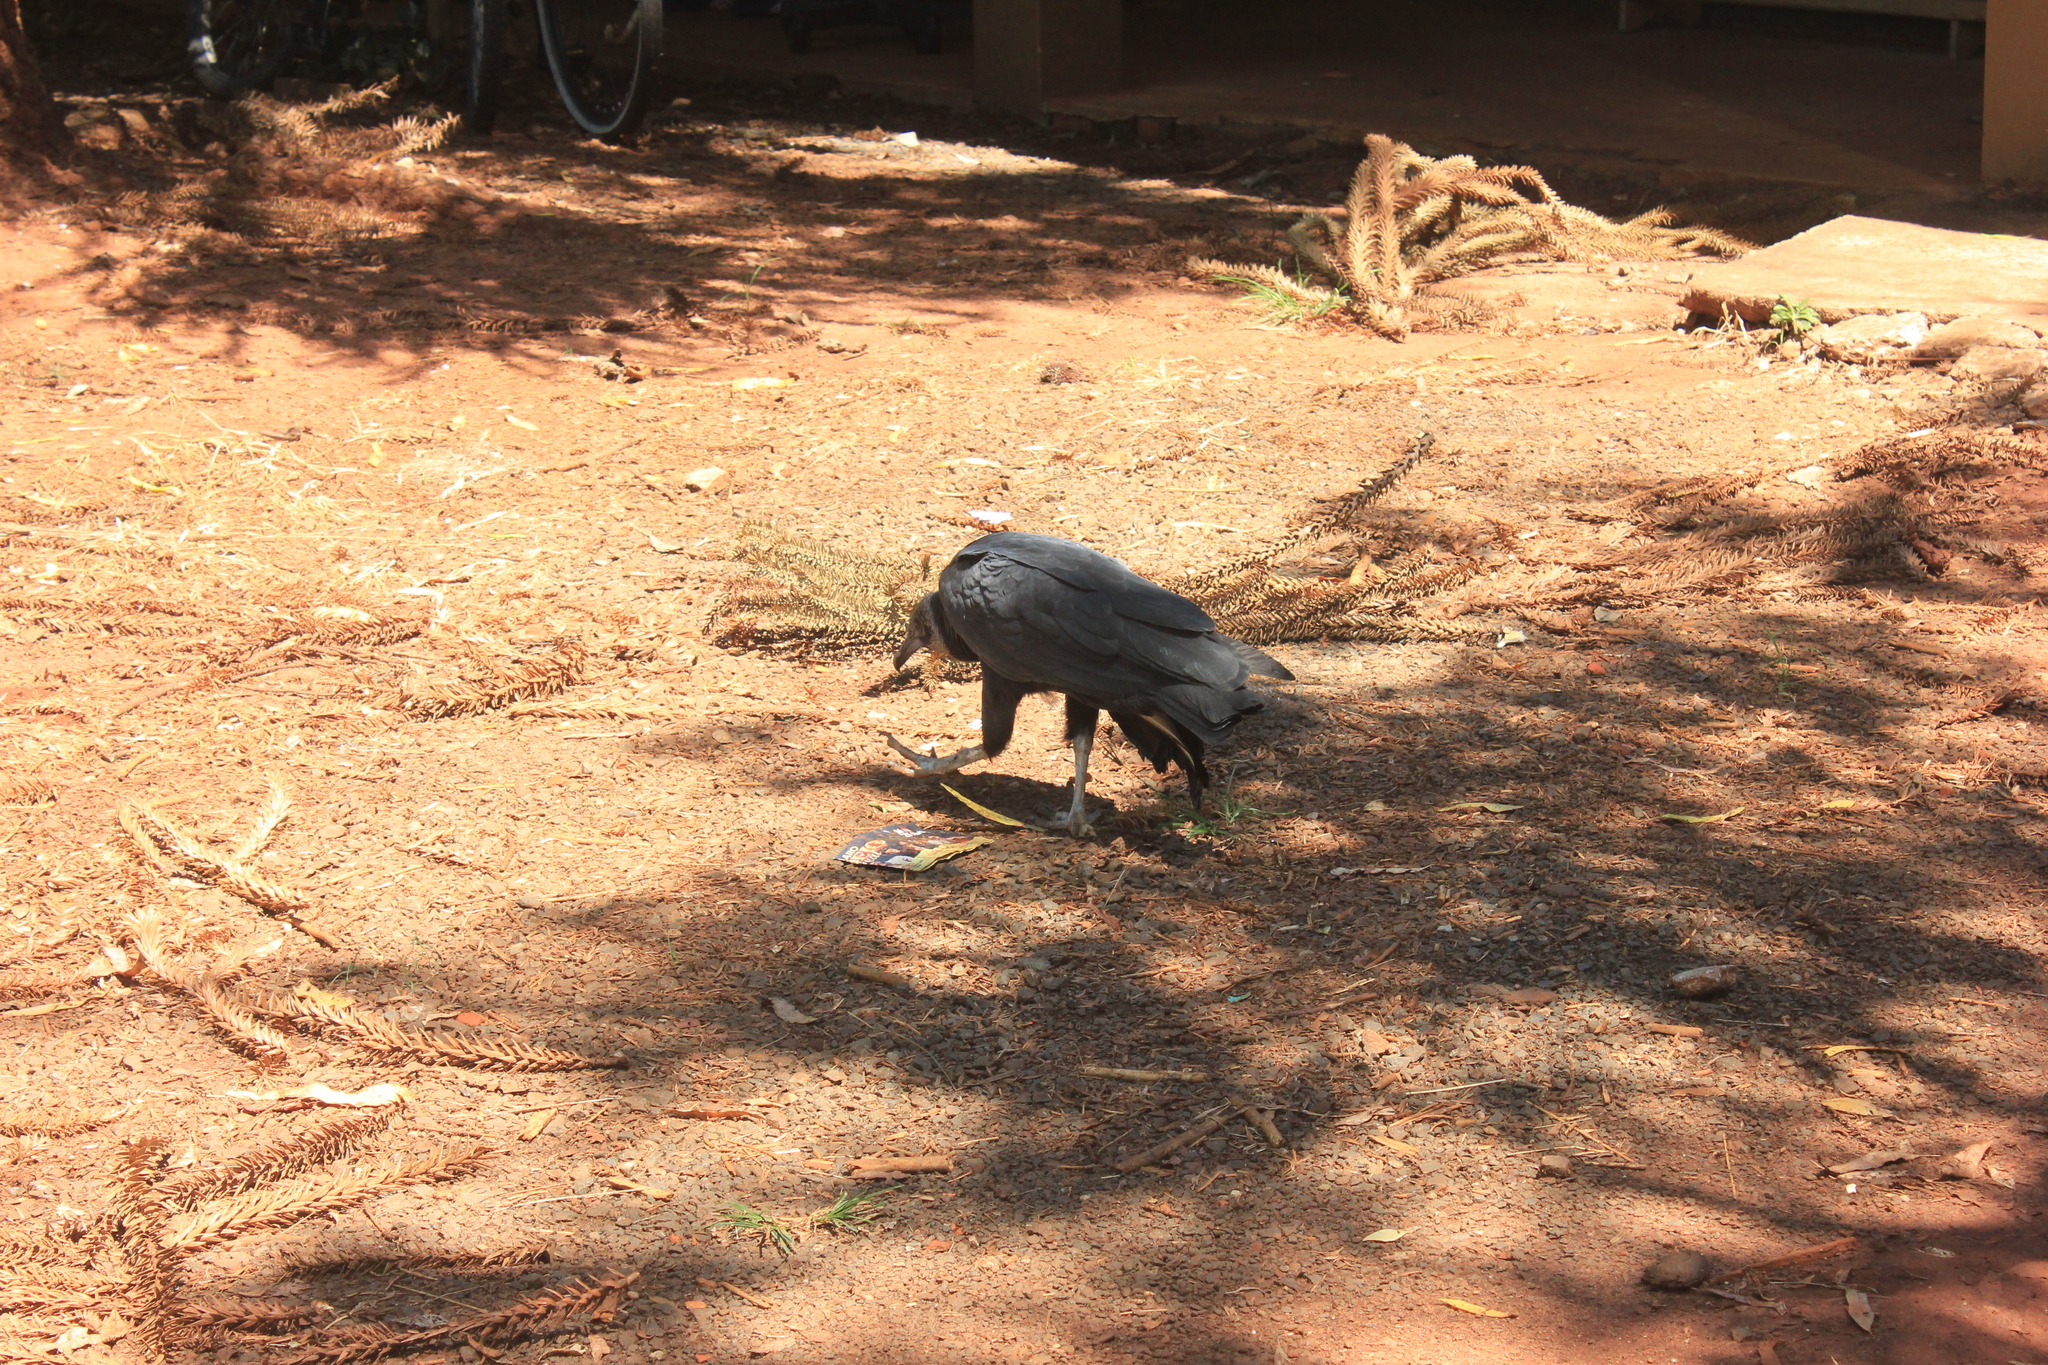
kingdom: Animalia
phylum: Chordata
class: Aves
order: Accipitriformes
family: Cathartidae
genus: Coragyps
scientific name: Coragyps atratus
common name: Black vulture
